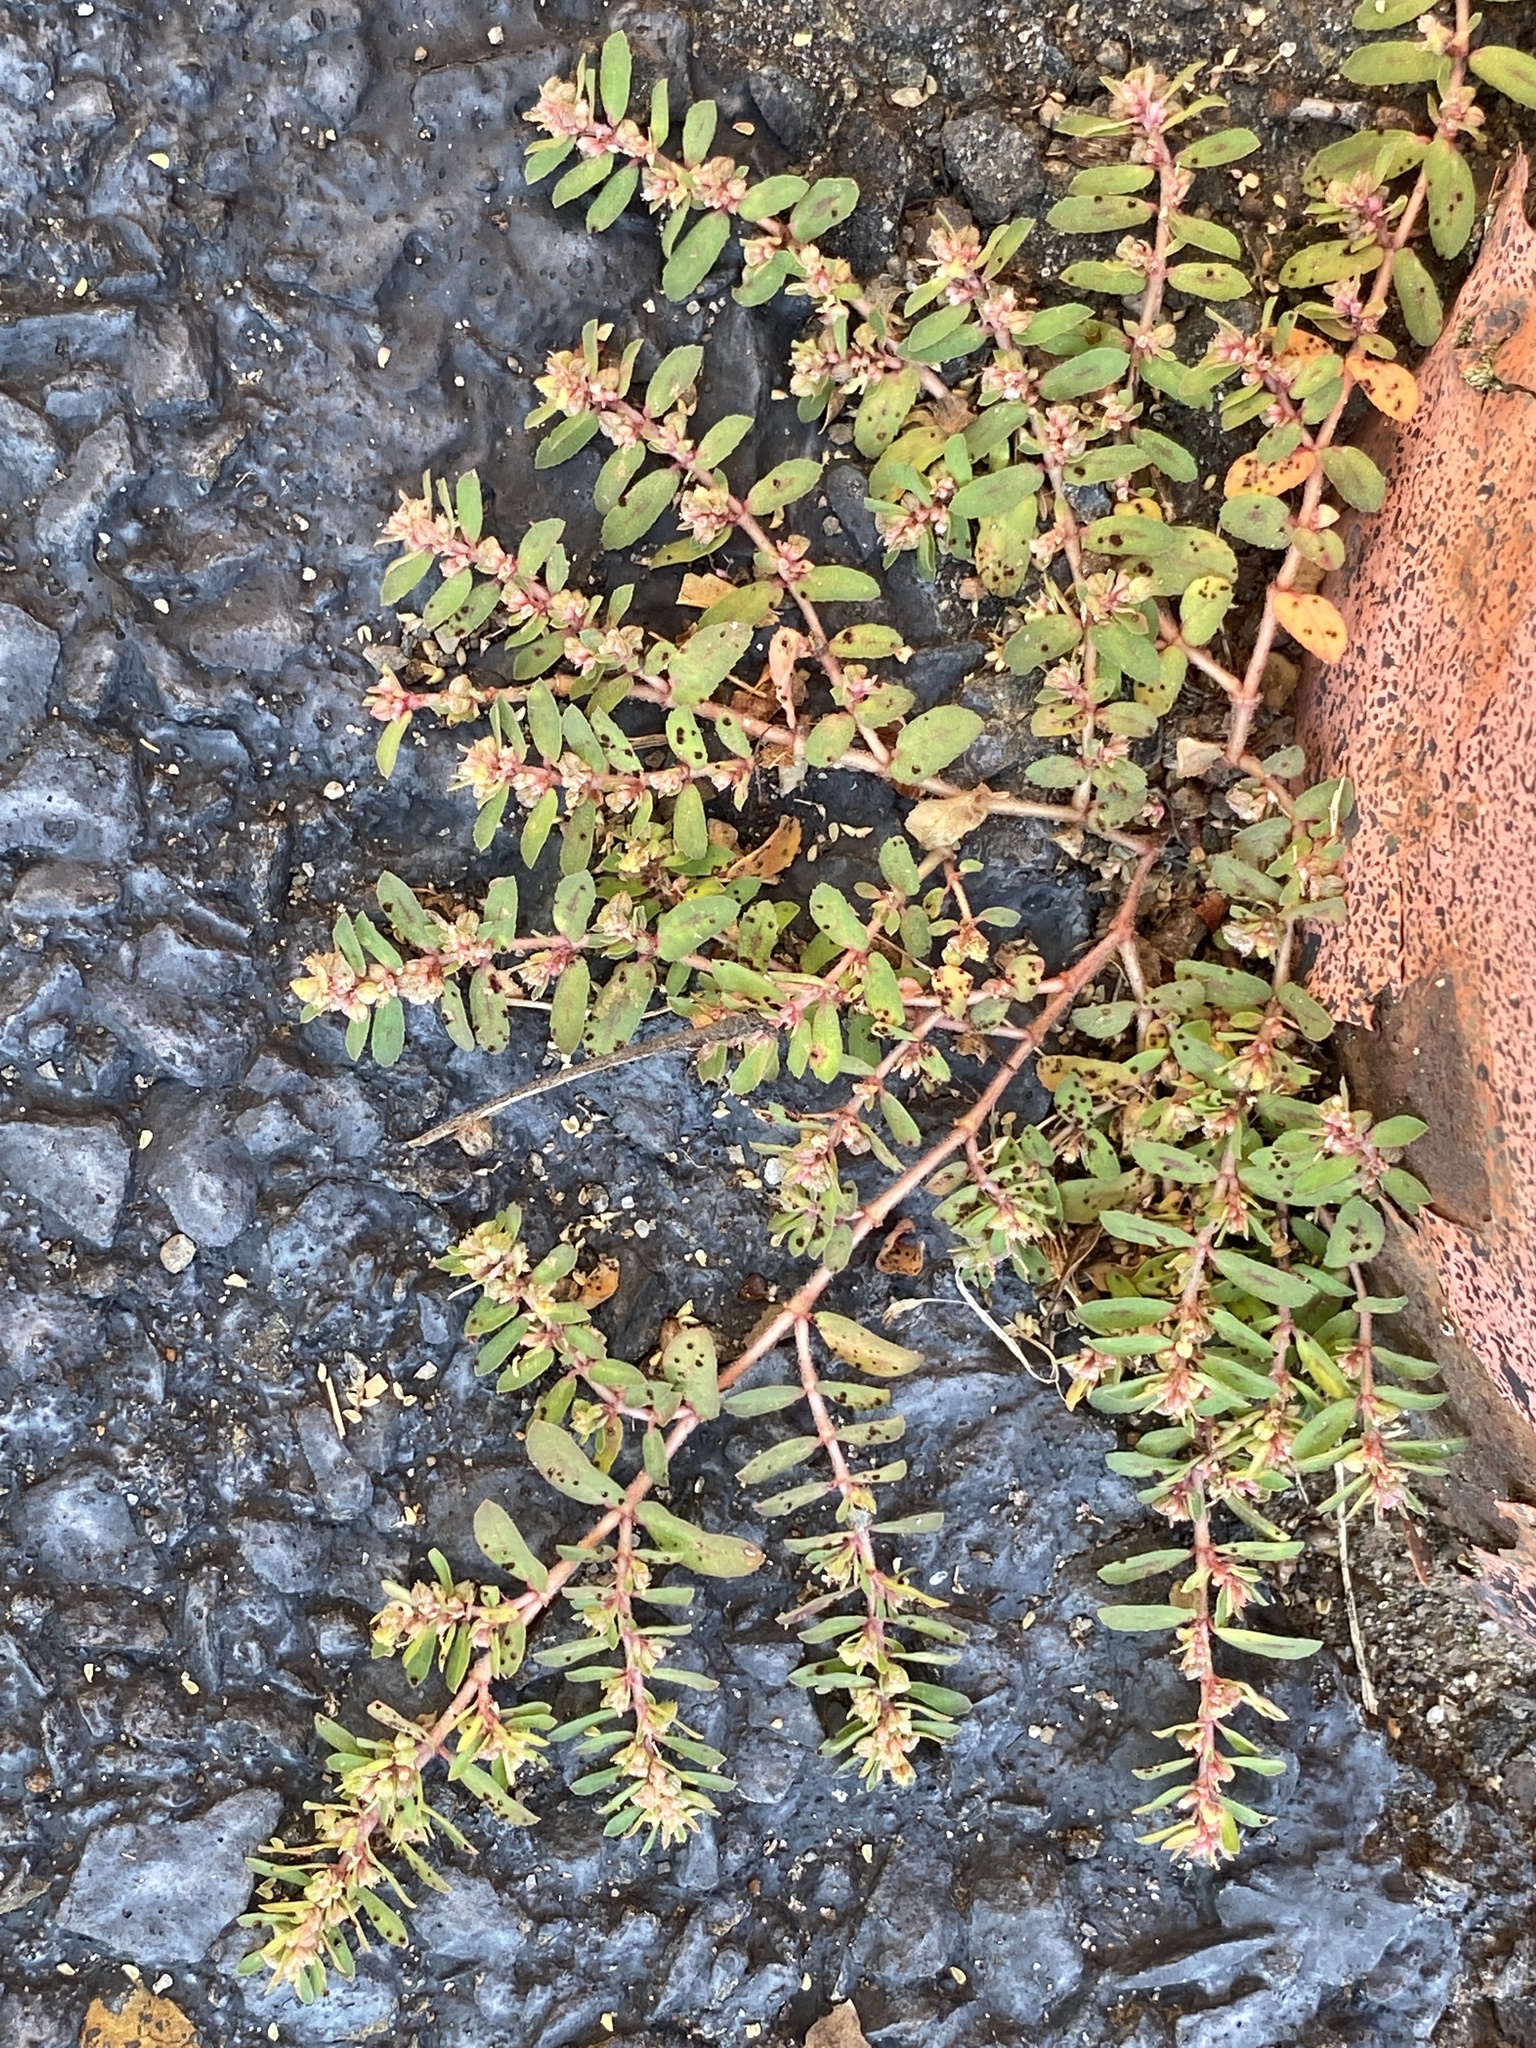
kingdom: Plantae
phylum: Tracheophyta
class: Magnoliopsida
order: Malpighiales
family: Euphorbiaceae
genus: Euphorbia
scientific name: Euphorbia maculata
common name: Spotted spurge
